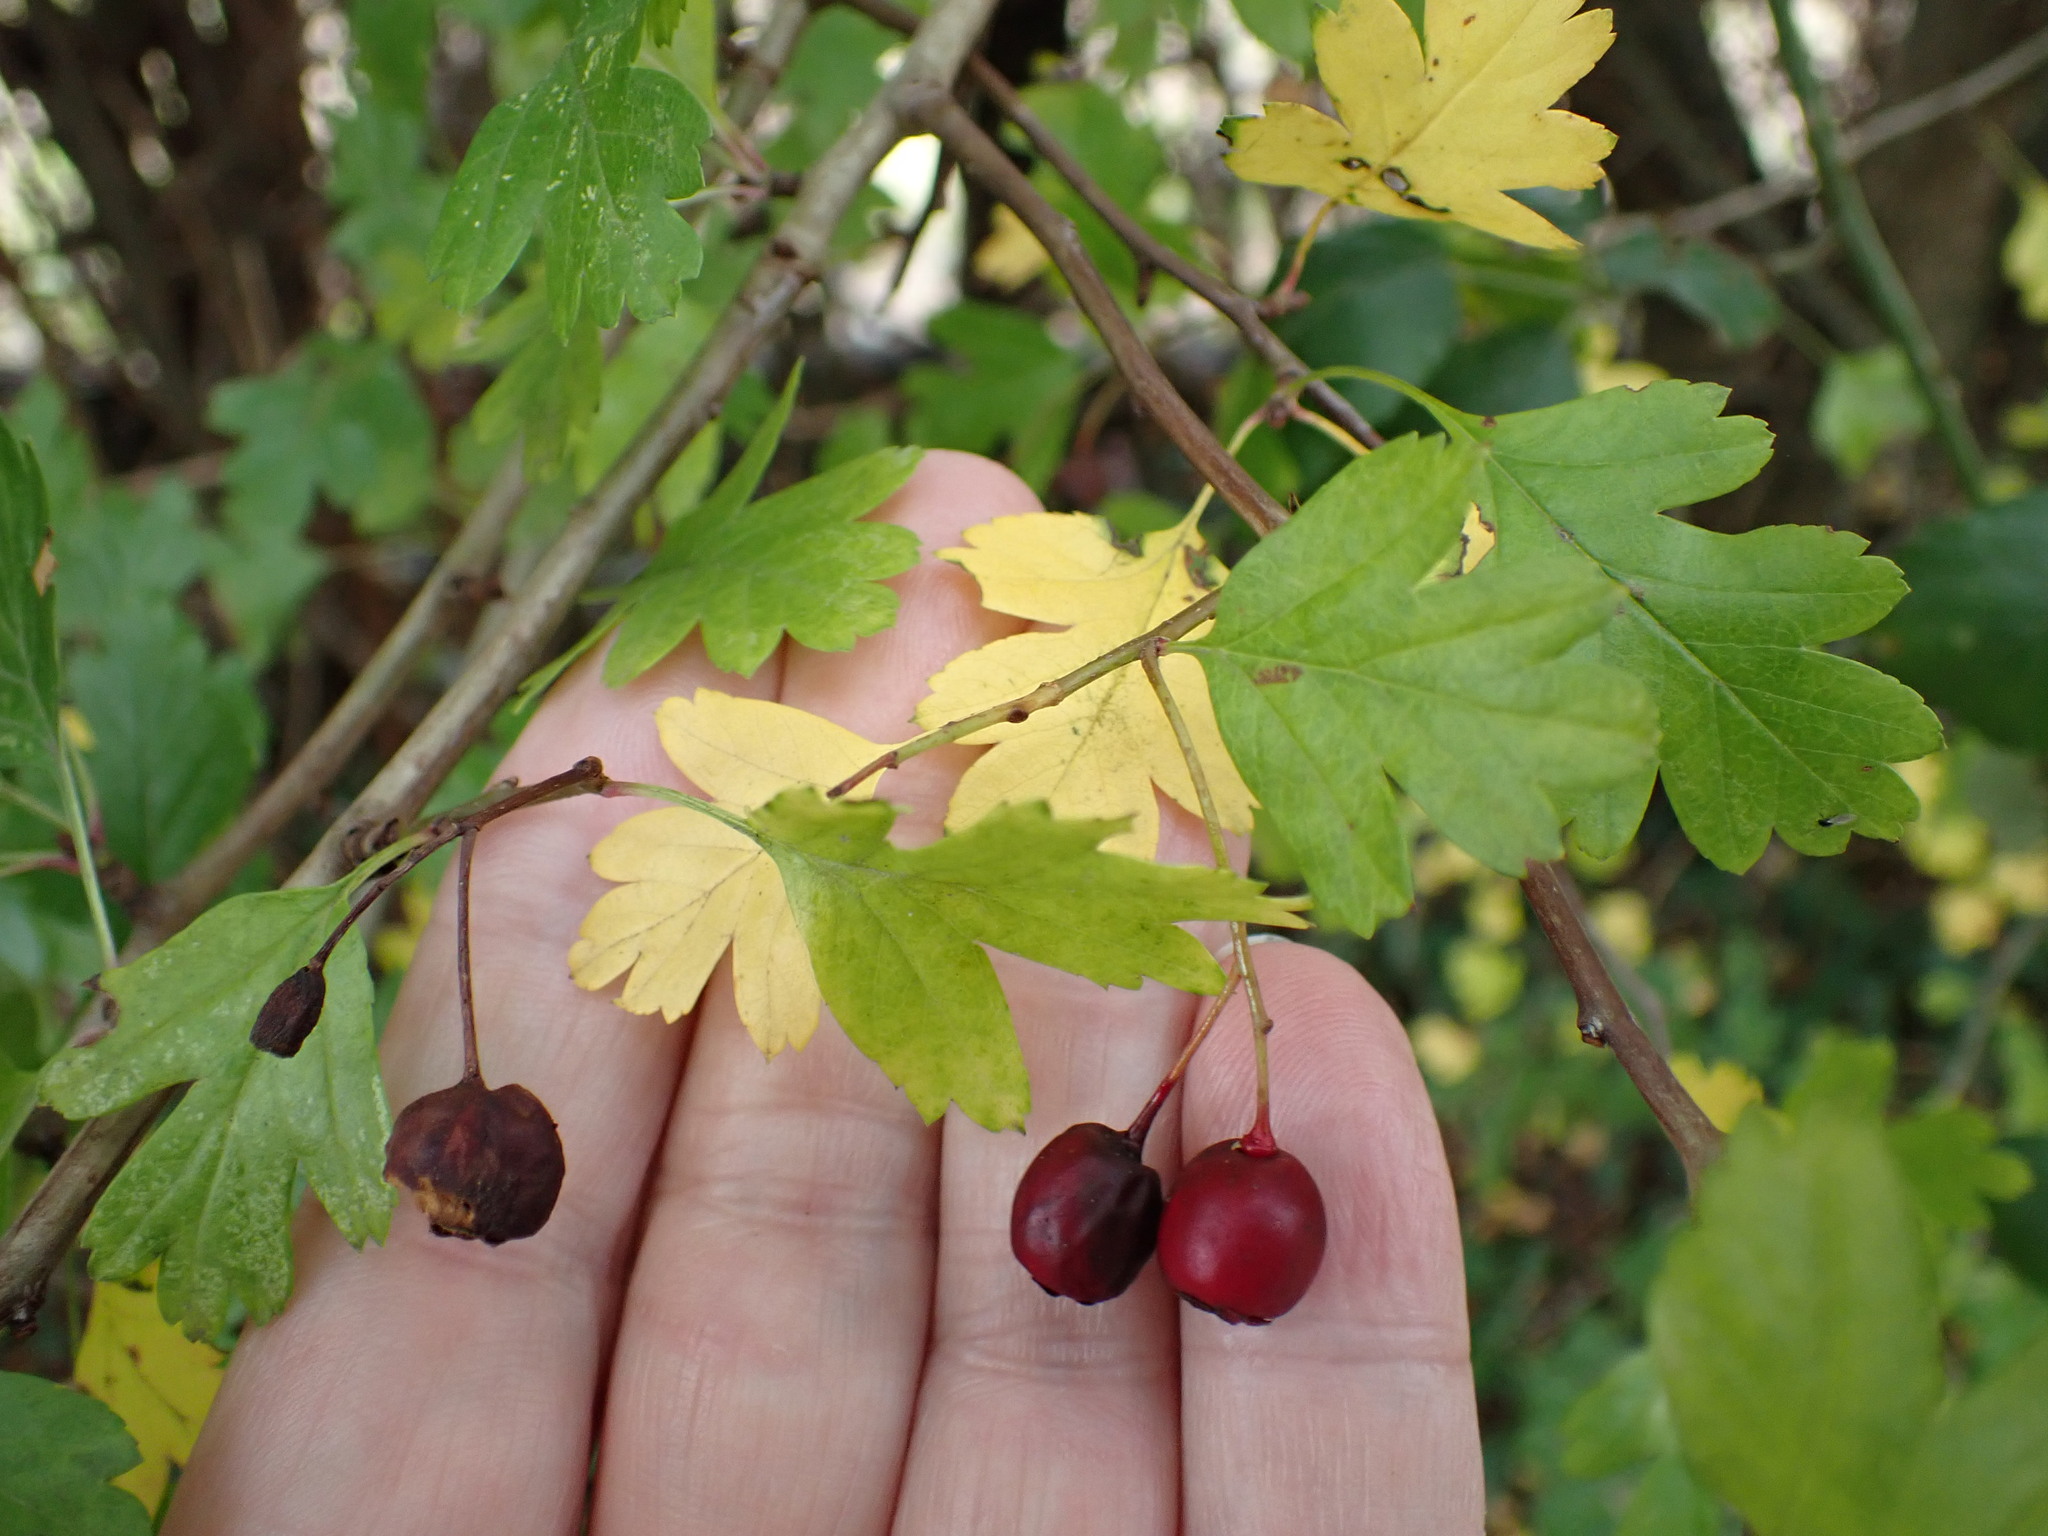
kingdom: Plantae
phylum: Tracheophyta
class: Magnoliopsida
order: Rosales
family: Rosaceae
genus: Crataegus
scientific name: Crataegus monogyna
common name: Hawthorn
